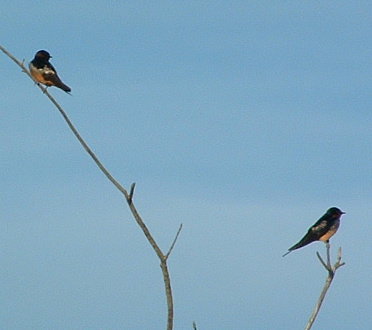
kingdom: Animalia
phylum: Chordata
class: Aves
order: Passeriformes
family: Hirundinidae
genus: Hirundo
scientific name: Hirundo rustica
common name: Barn swallow
